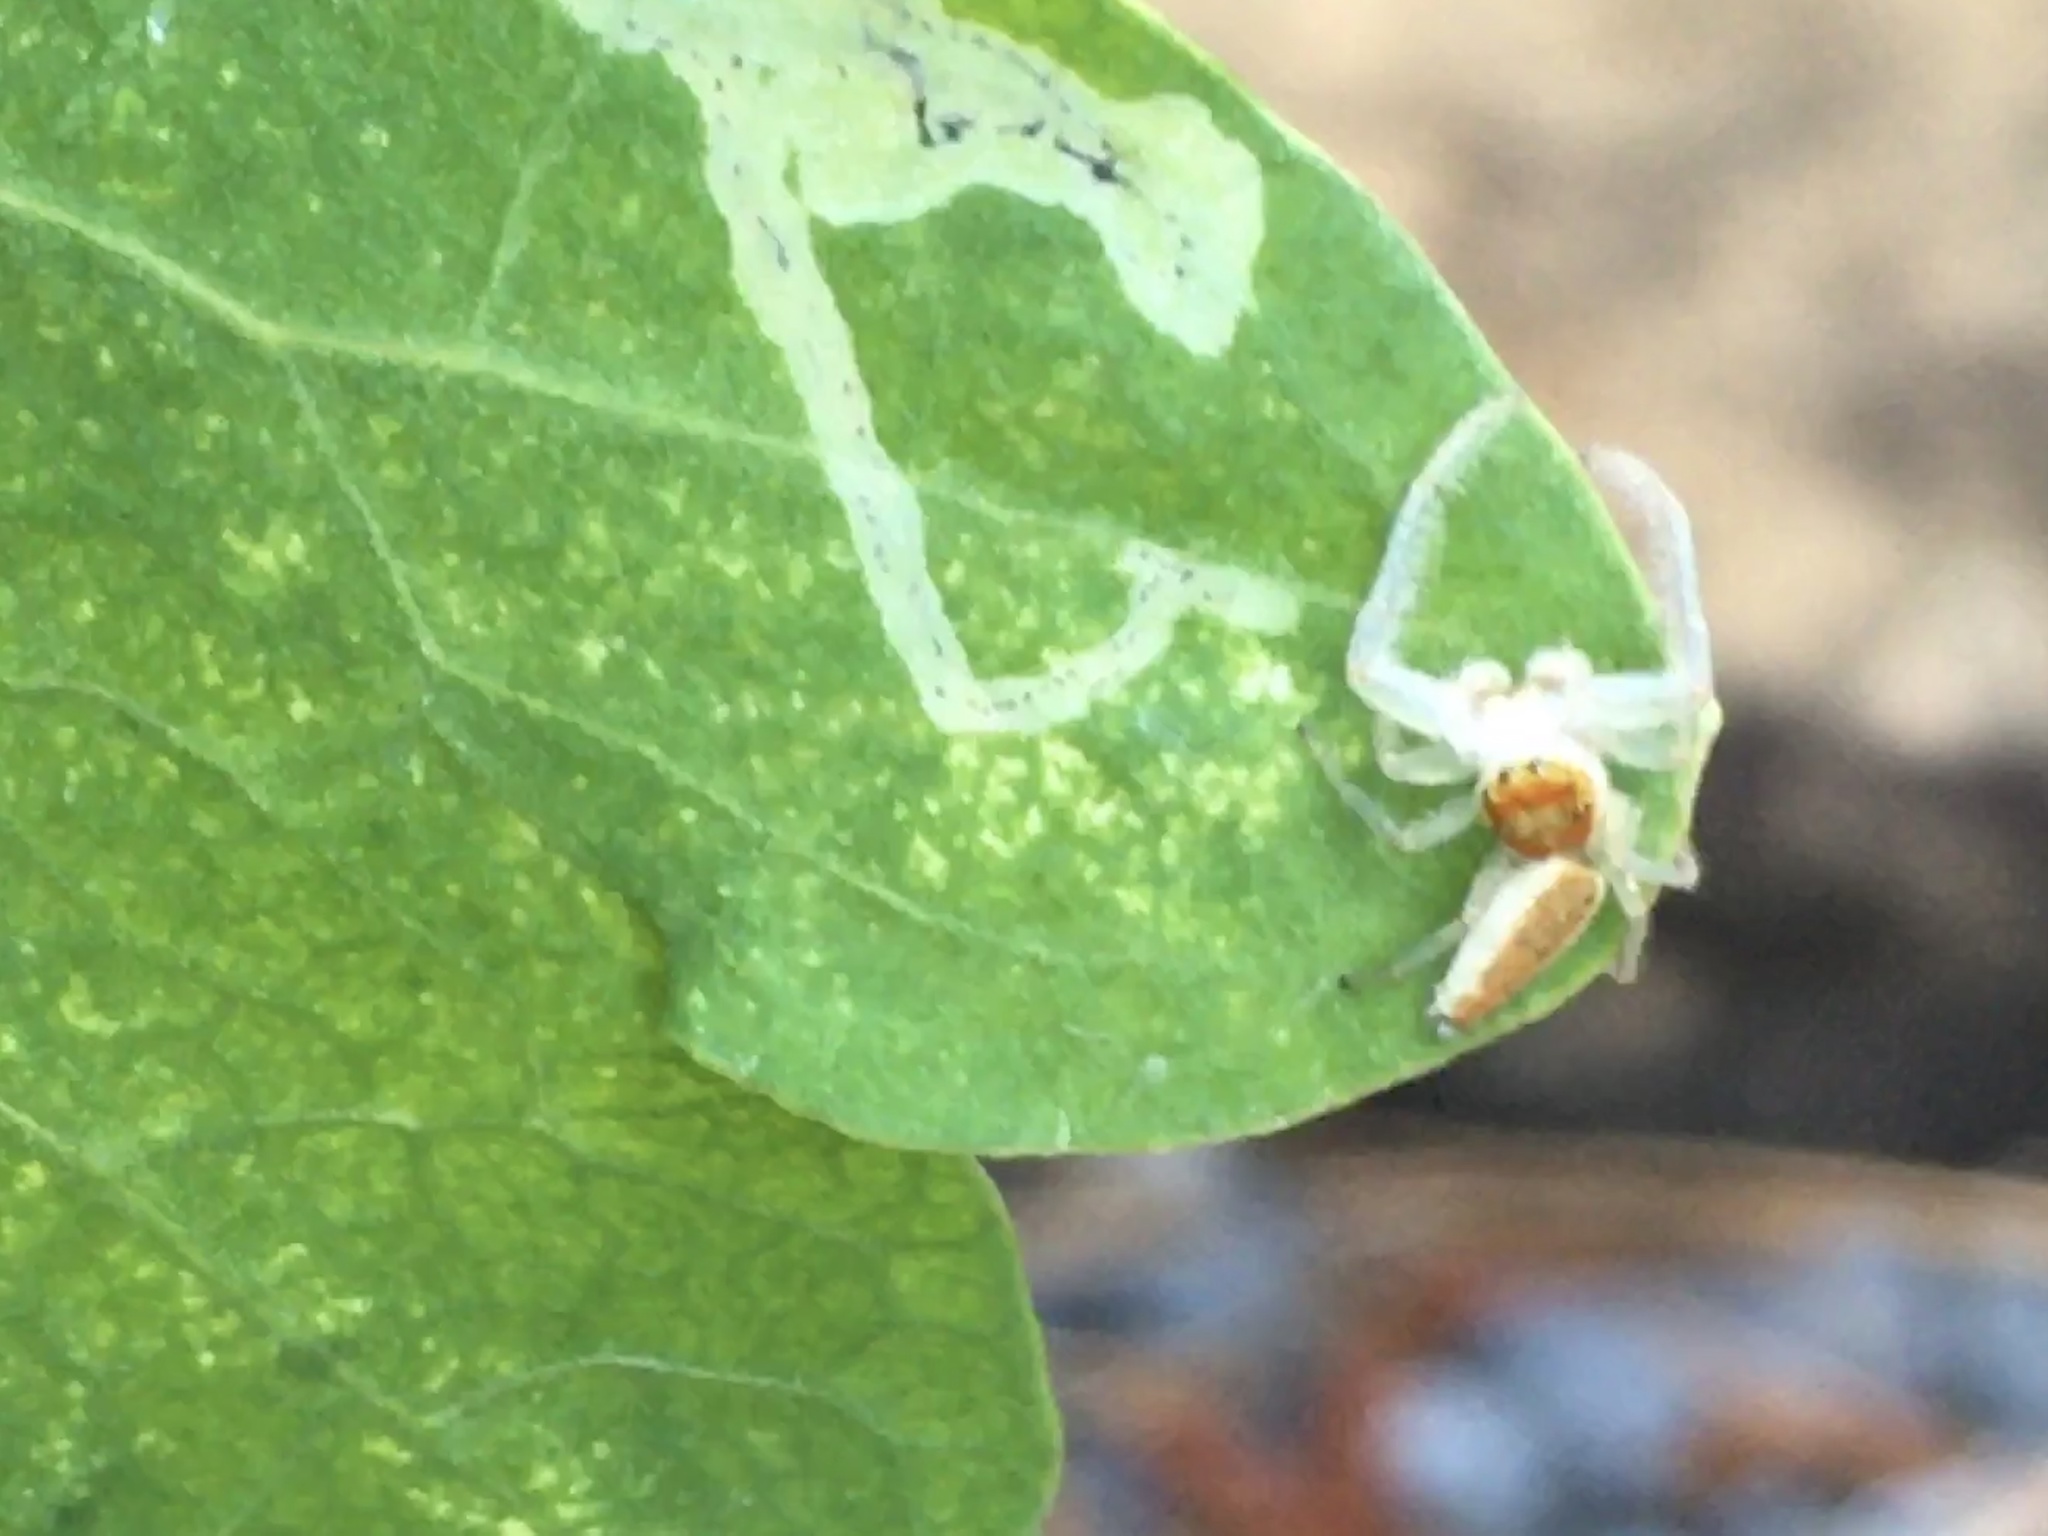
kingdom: Animalia
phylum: Arthropoda
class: Arachnida
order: Araneae
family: Salticidae
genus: Hentzia
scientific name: Hentzia mitrata
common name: White-jawed jumping spider
